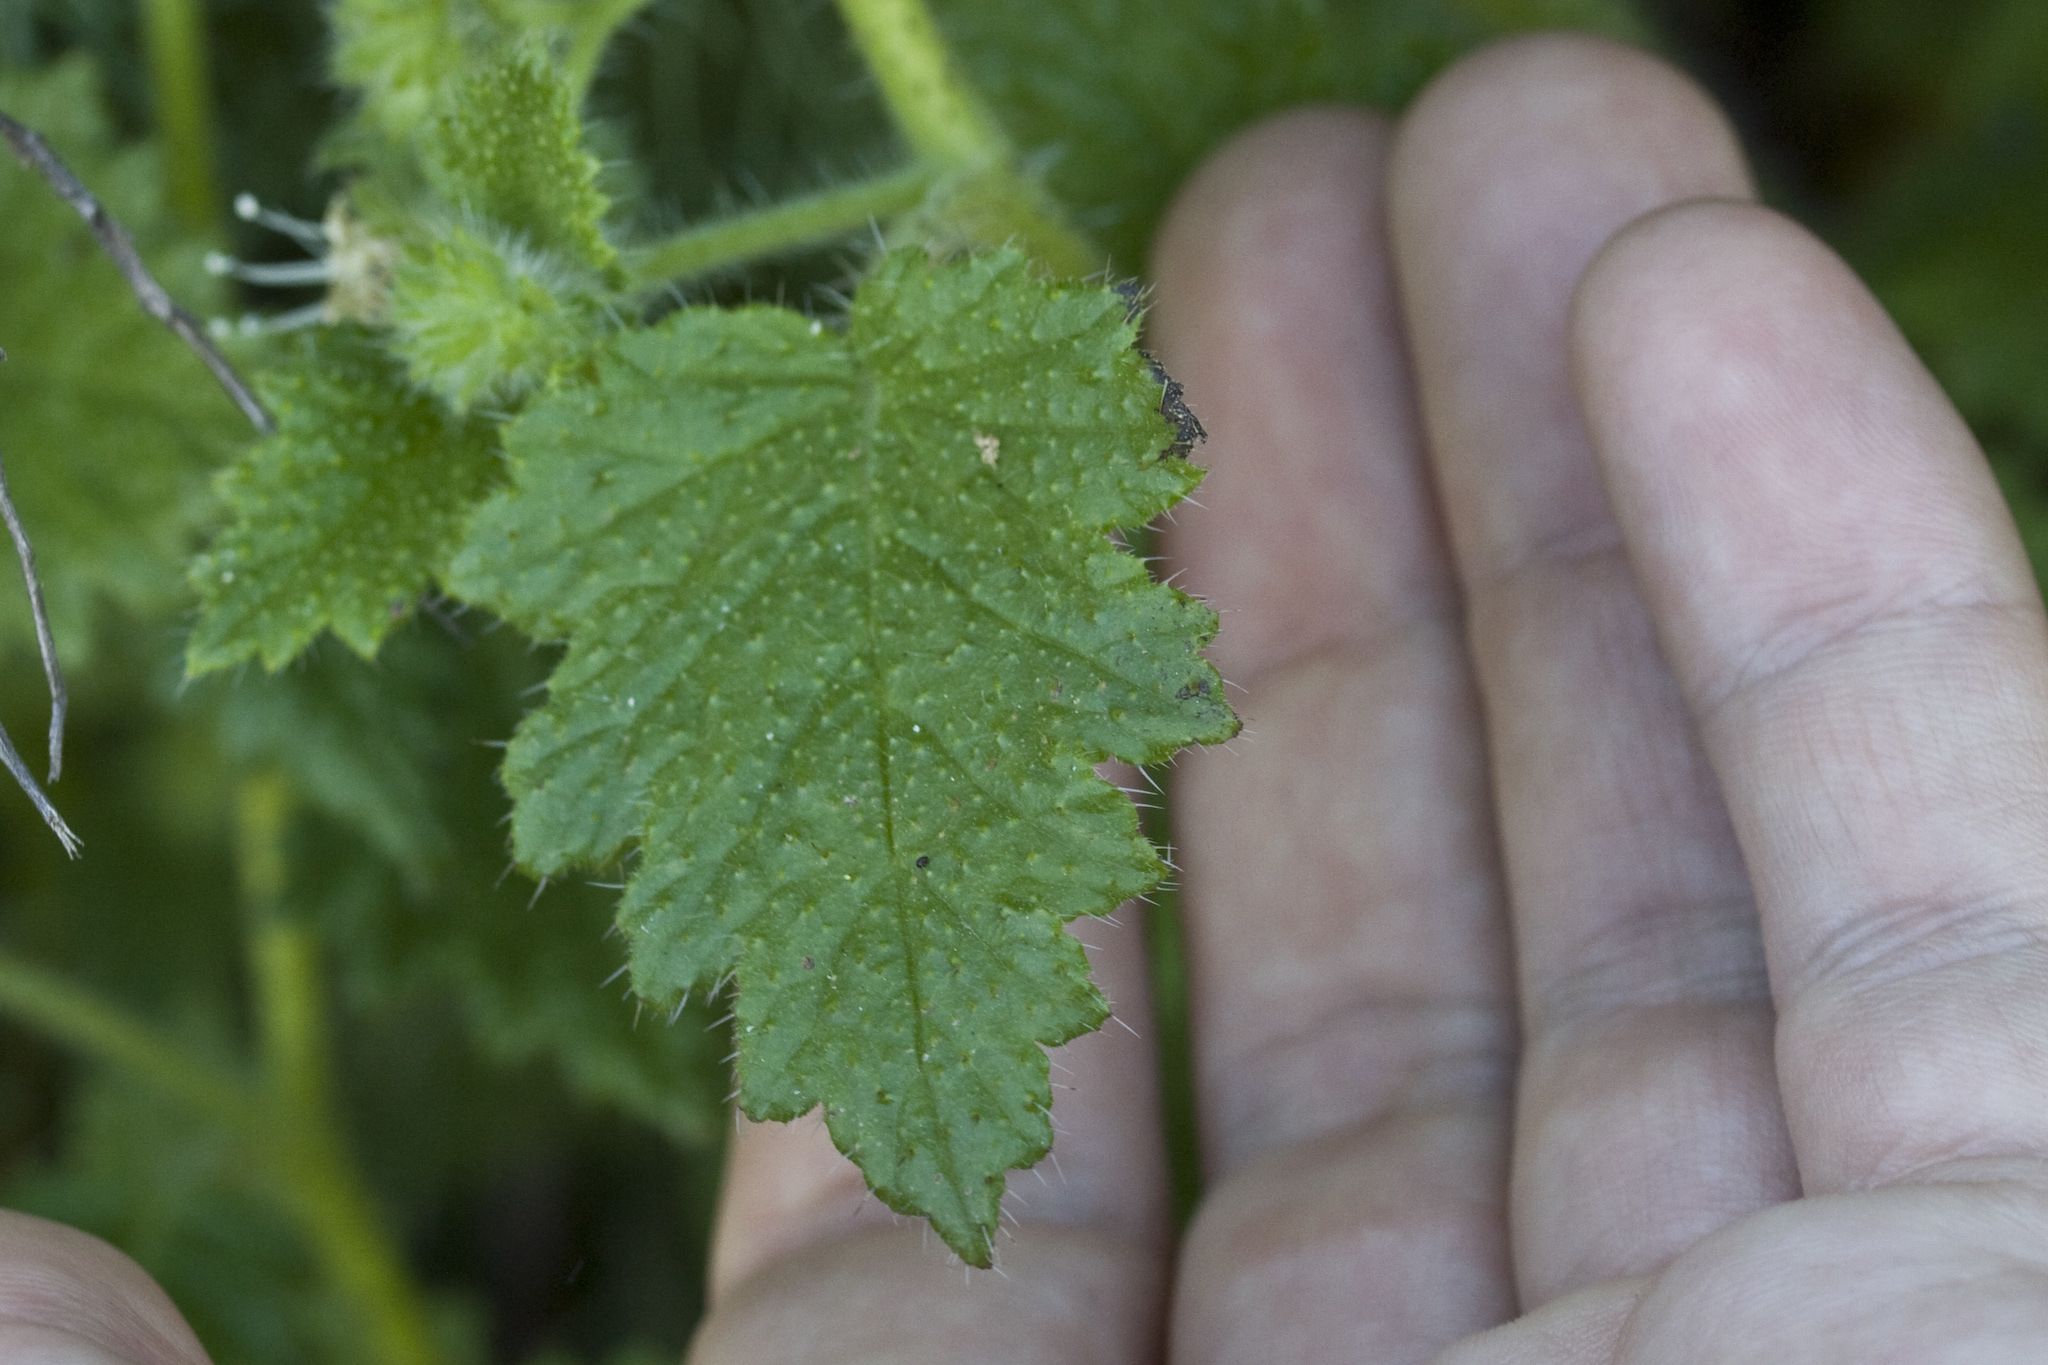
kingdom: Plantae
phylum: Tracheophyta
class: Magnoliopsida
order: Boraginales
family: Hydrophyllaceae
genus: Phacelia
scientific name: Phacelia malvifolia
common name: Mallow-leaf phacelia
